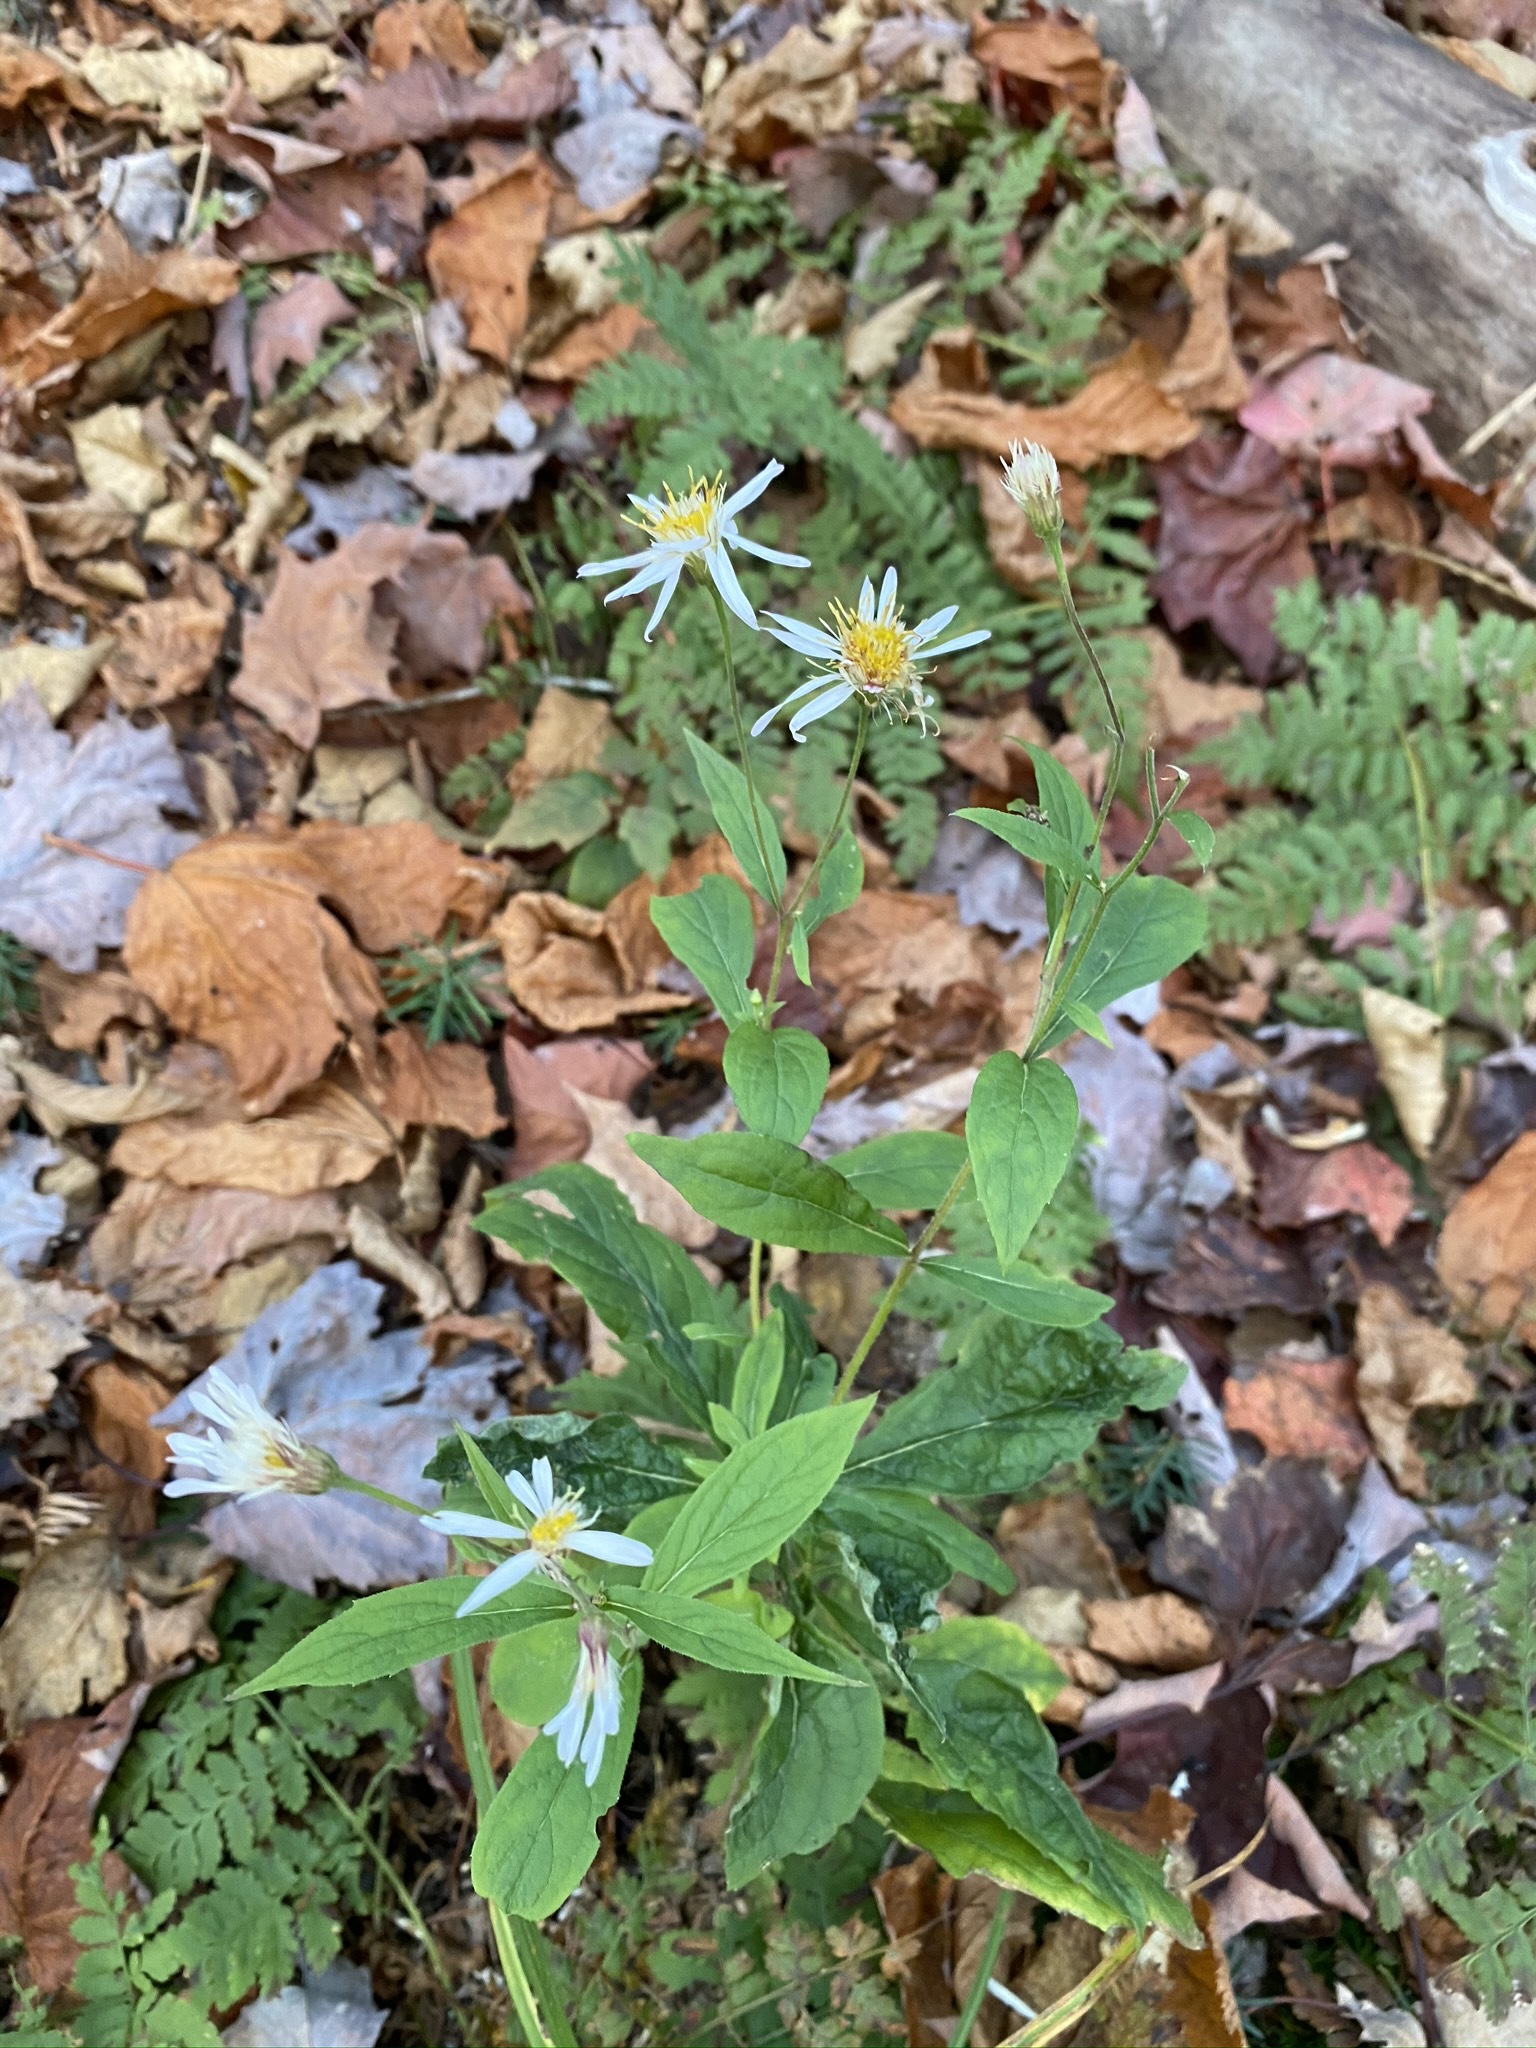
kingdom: Plantae
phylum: Tracheophyta
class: Magnoliopsida
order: Asterales
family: Asteraceae
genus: Oclemena
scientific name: Oclemena acuminata
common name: Mountain aster
